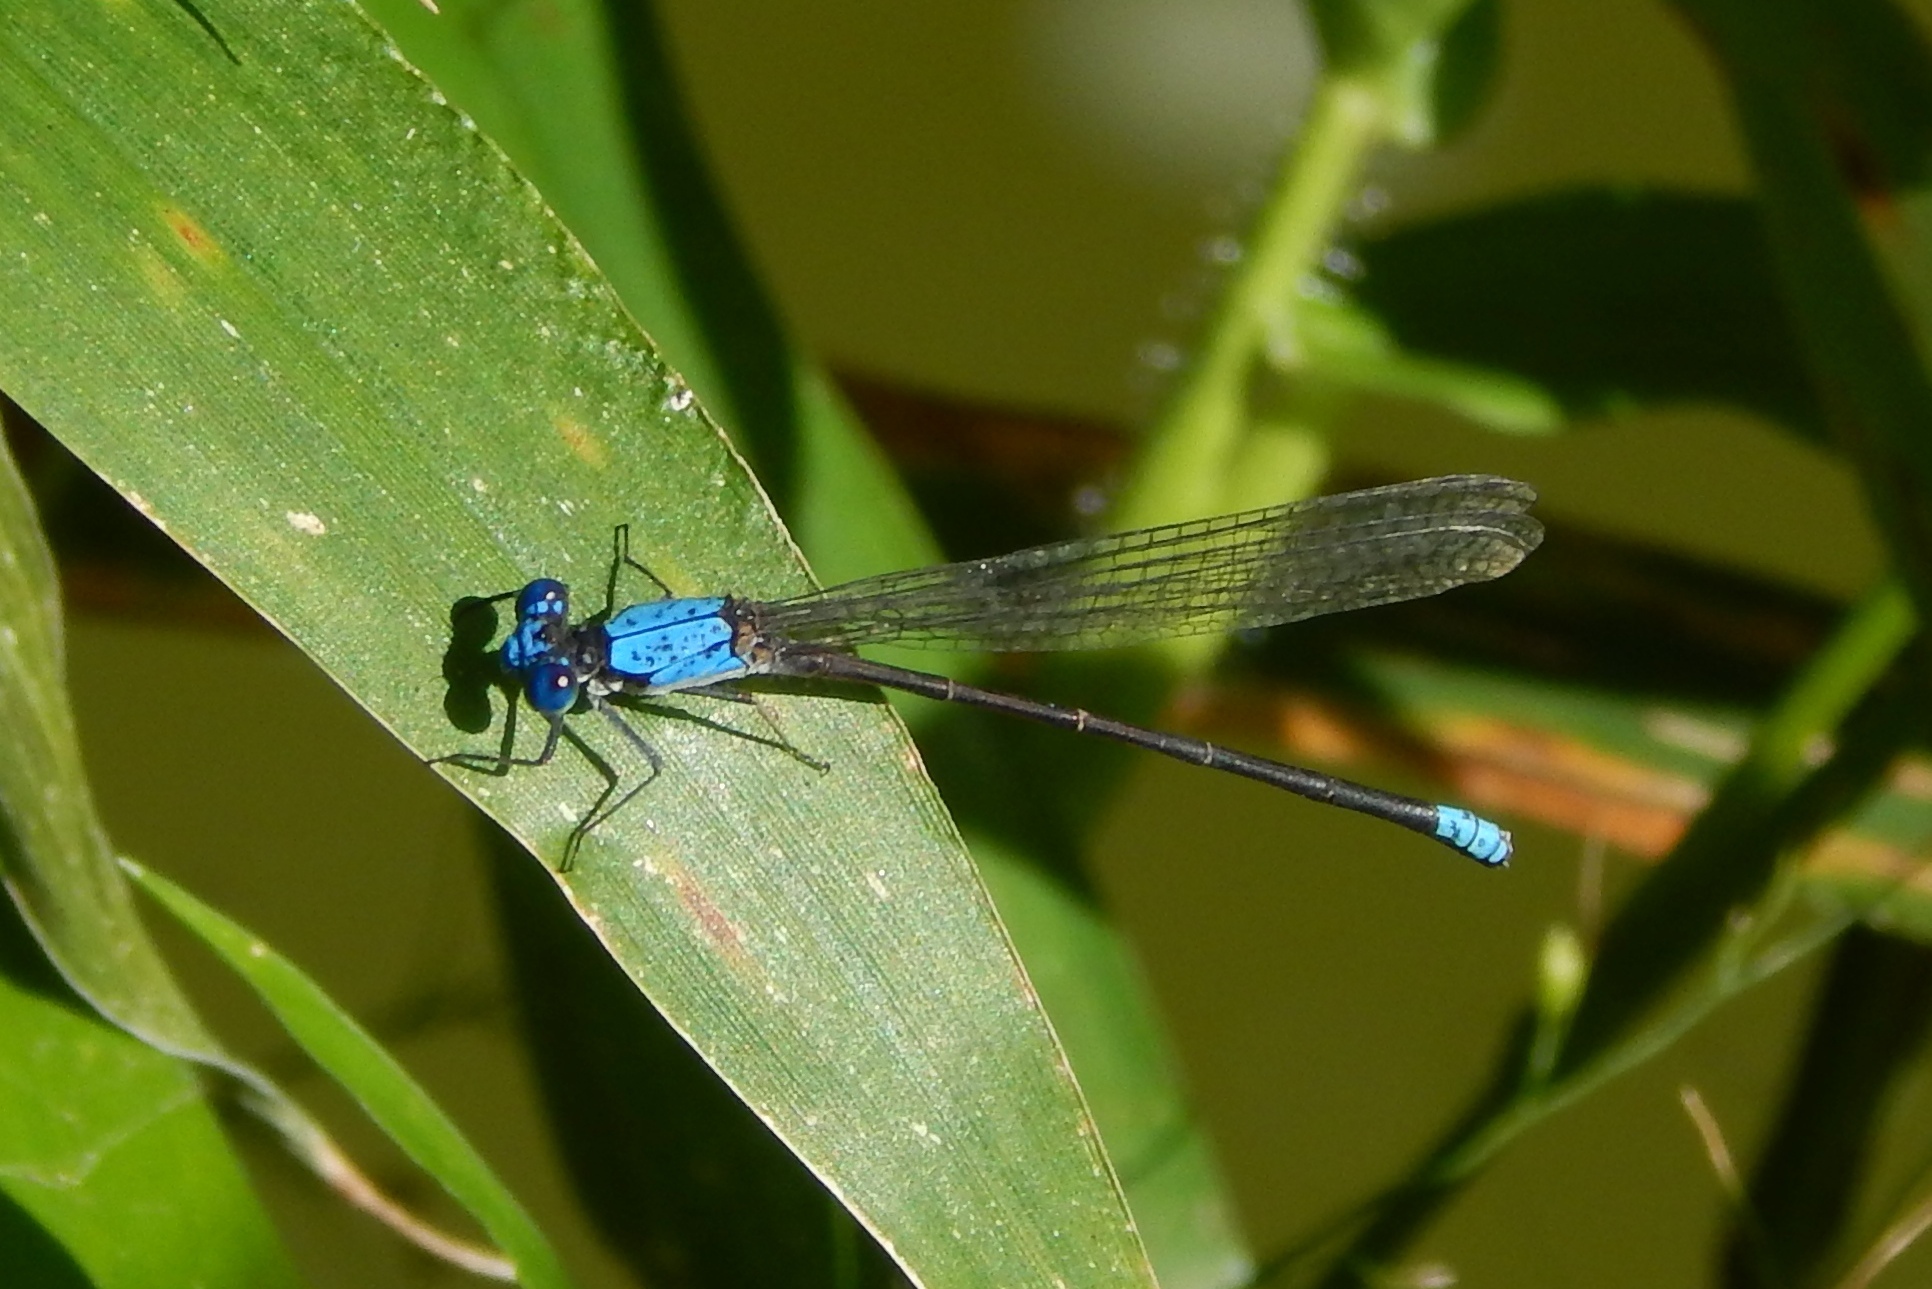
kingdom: Animalia
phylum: Arthropoda
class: Insecta
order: Odonata
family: Coenagrionidae
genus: Argia
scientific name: Argia apicalis
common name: Blue-fronted dancer
